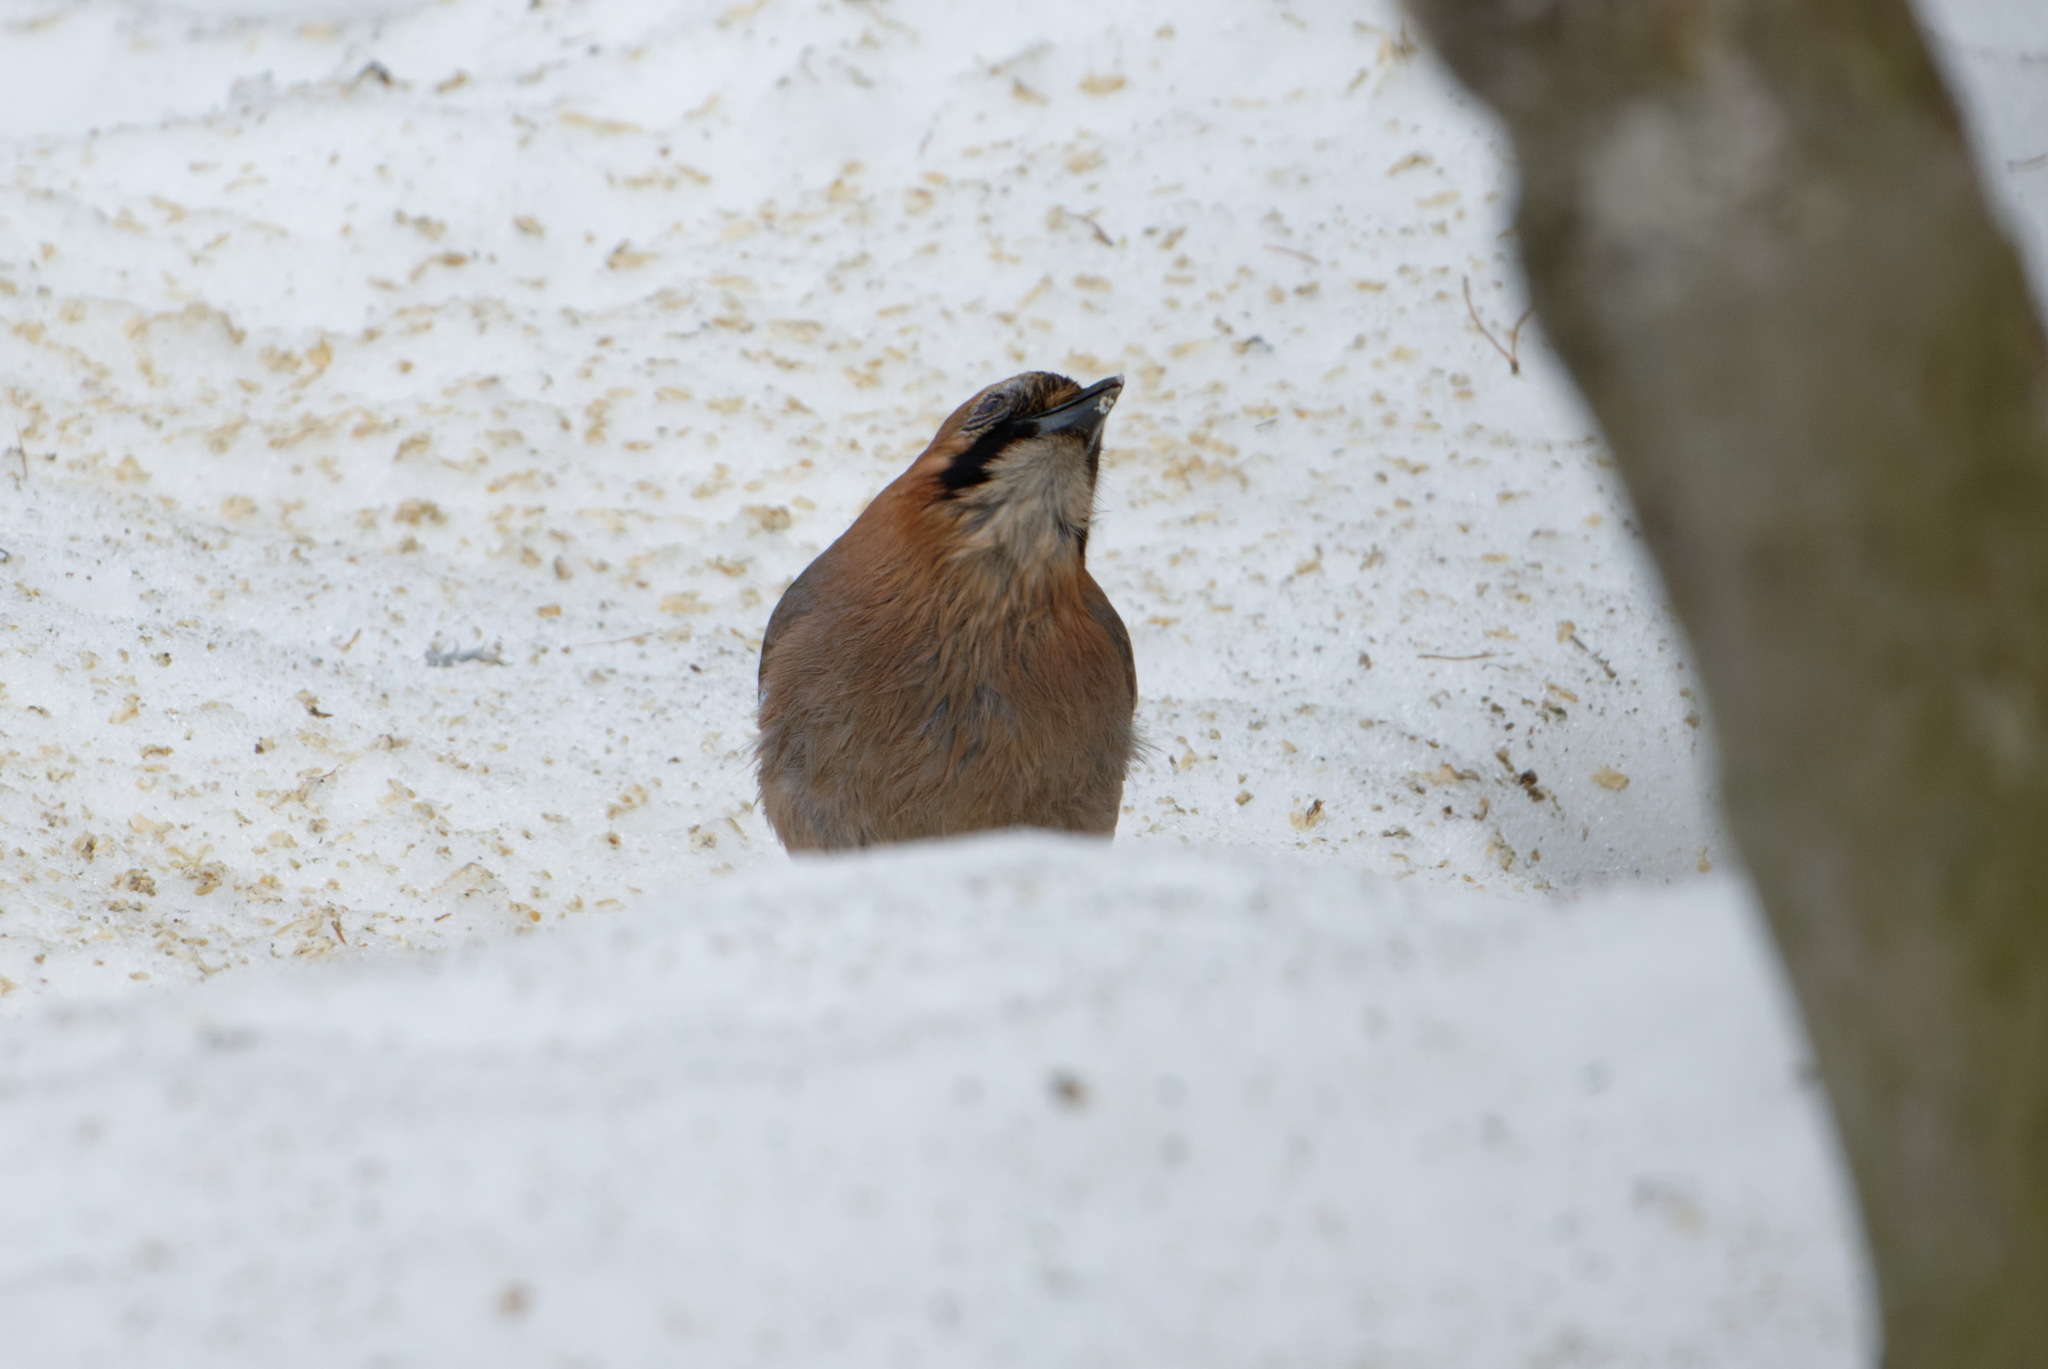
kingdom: Animalia
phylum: Chordata
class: Aves
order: Passeriformes
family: Corvidae
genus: Garrulus
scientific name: Garrulus glandarius
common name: Eurasian jay
